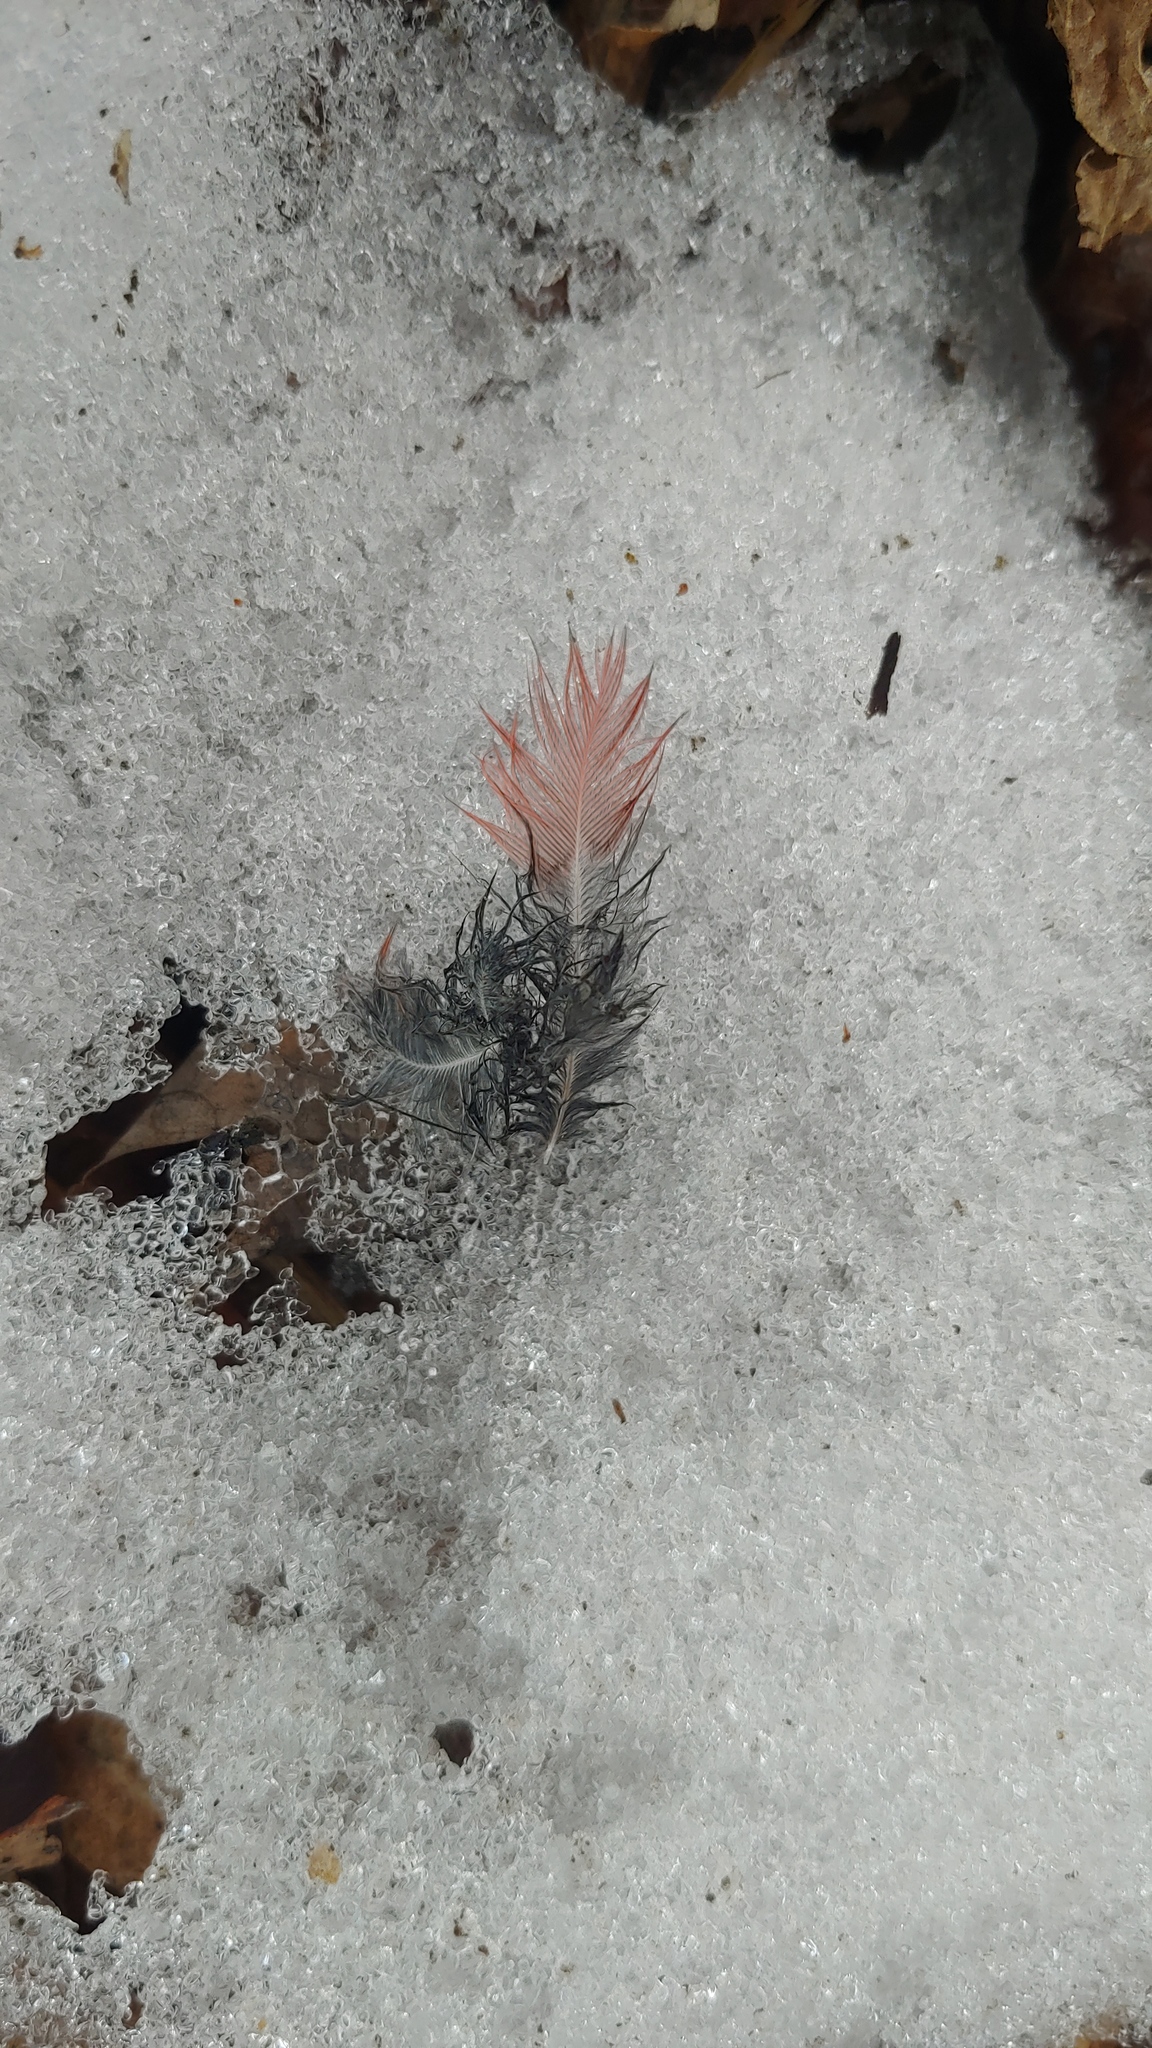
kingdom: Animalia
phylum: Chordata
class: Aves
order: Passeriformes
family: Cardinalidae
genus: Cardinalis
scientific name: Cardinalis cardinalis
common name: Northern cardinal
